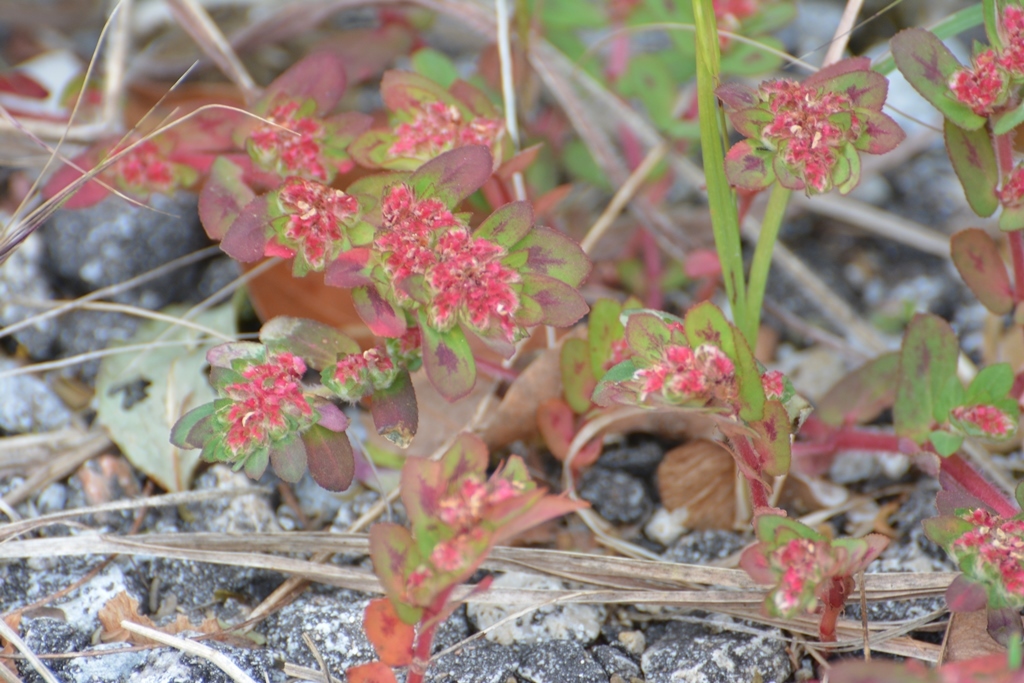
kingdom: Plantae
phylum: Tracheophyta
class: Magnoliopsida
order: Malpighiales
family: Euphorbiaceae
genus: Euphorbia
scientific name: Euphorbia densiflora
